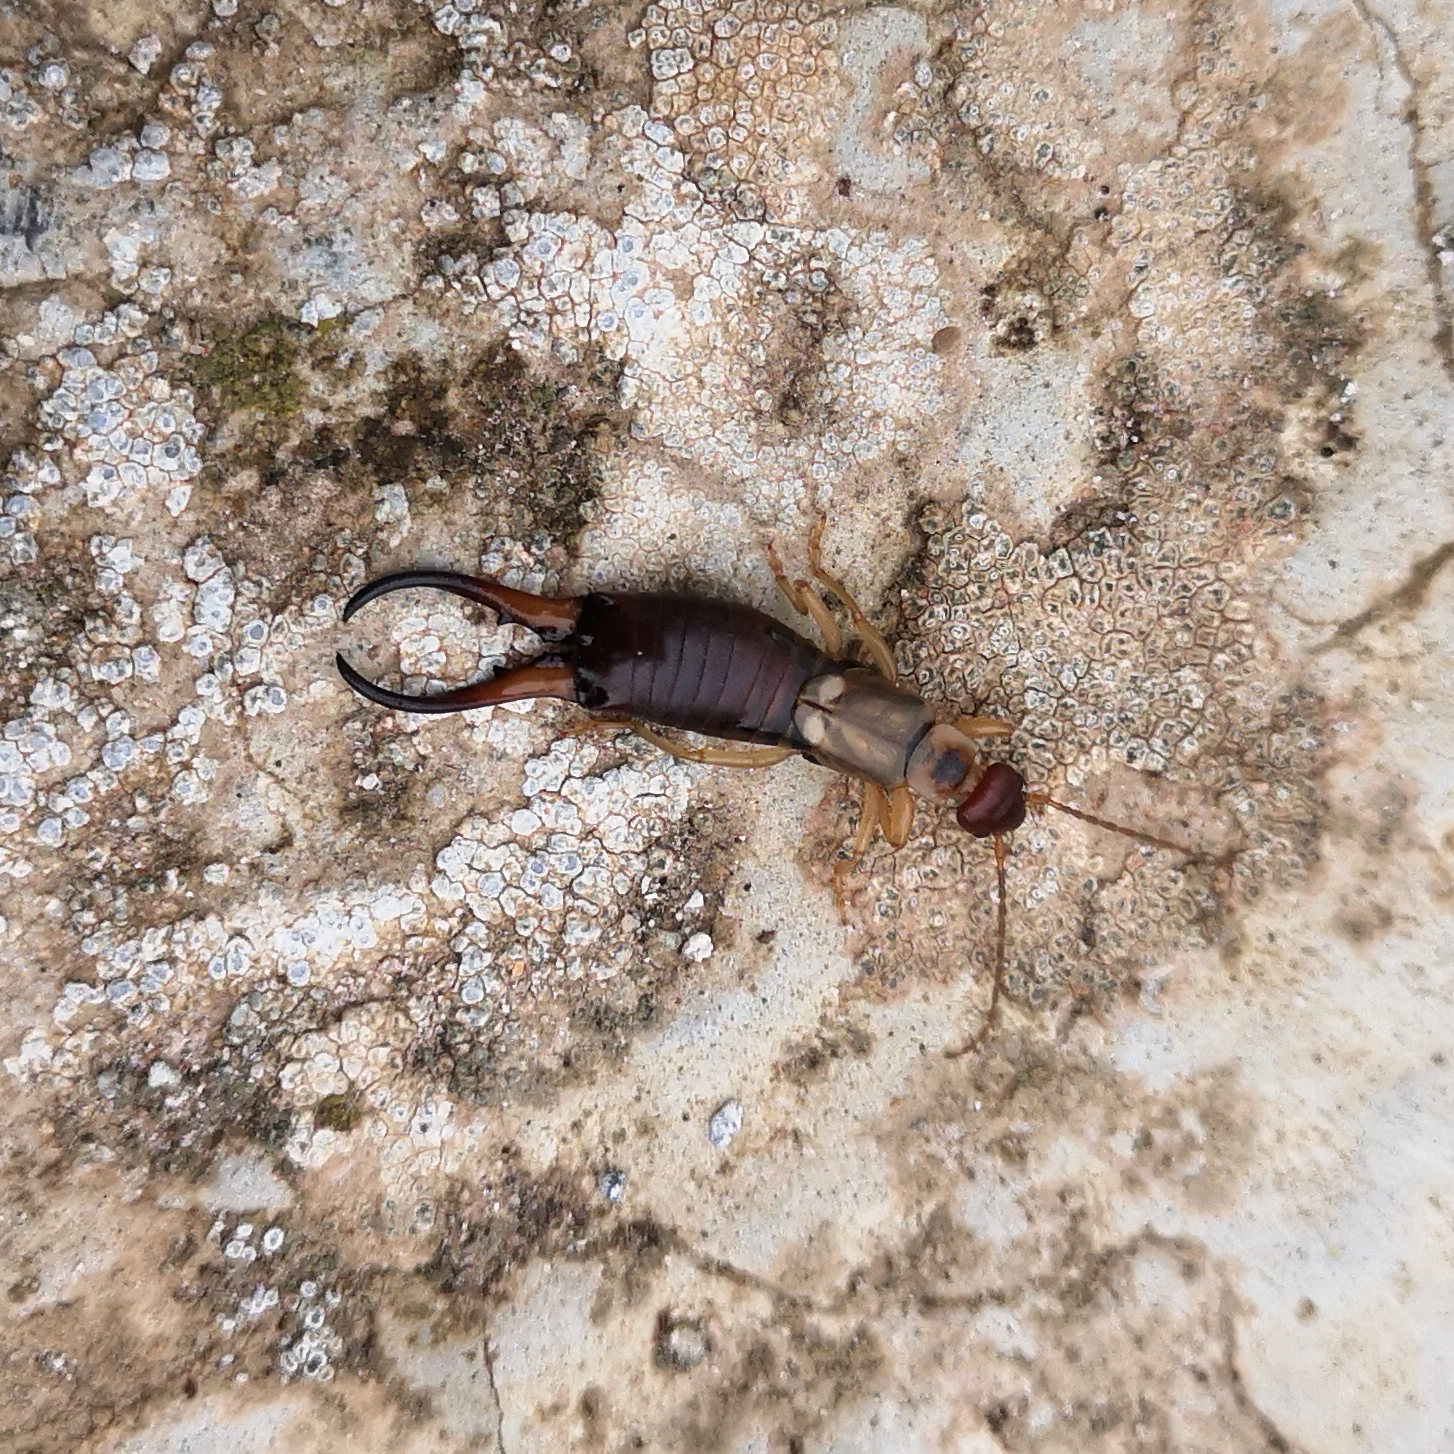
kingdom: Animalia
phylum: Arthropoda
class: Insecta
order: Dermaptera
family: Forficulidae
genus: Forficula
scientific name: Forficula
